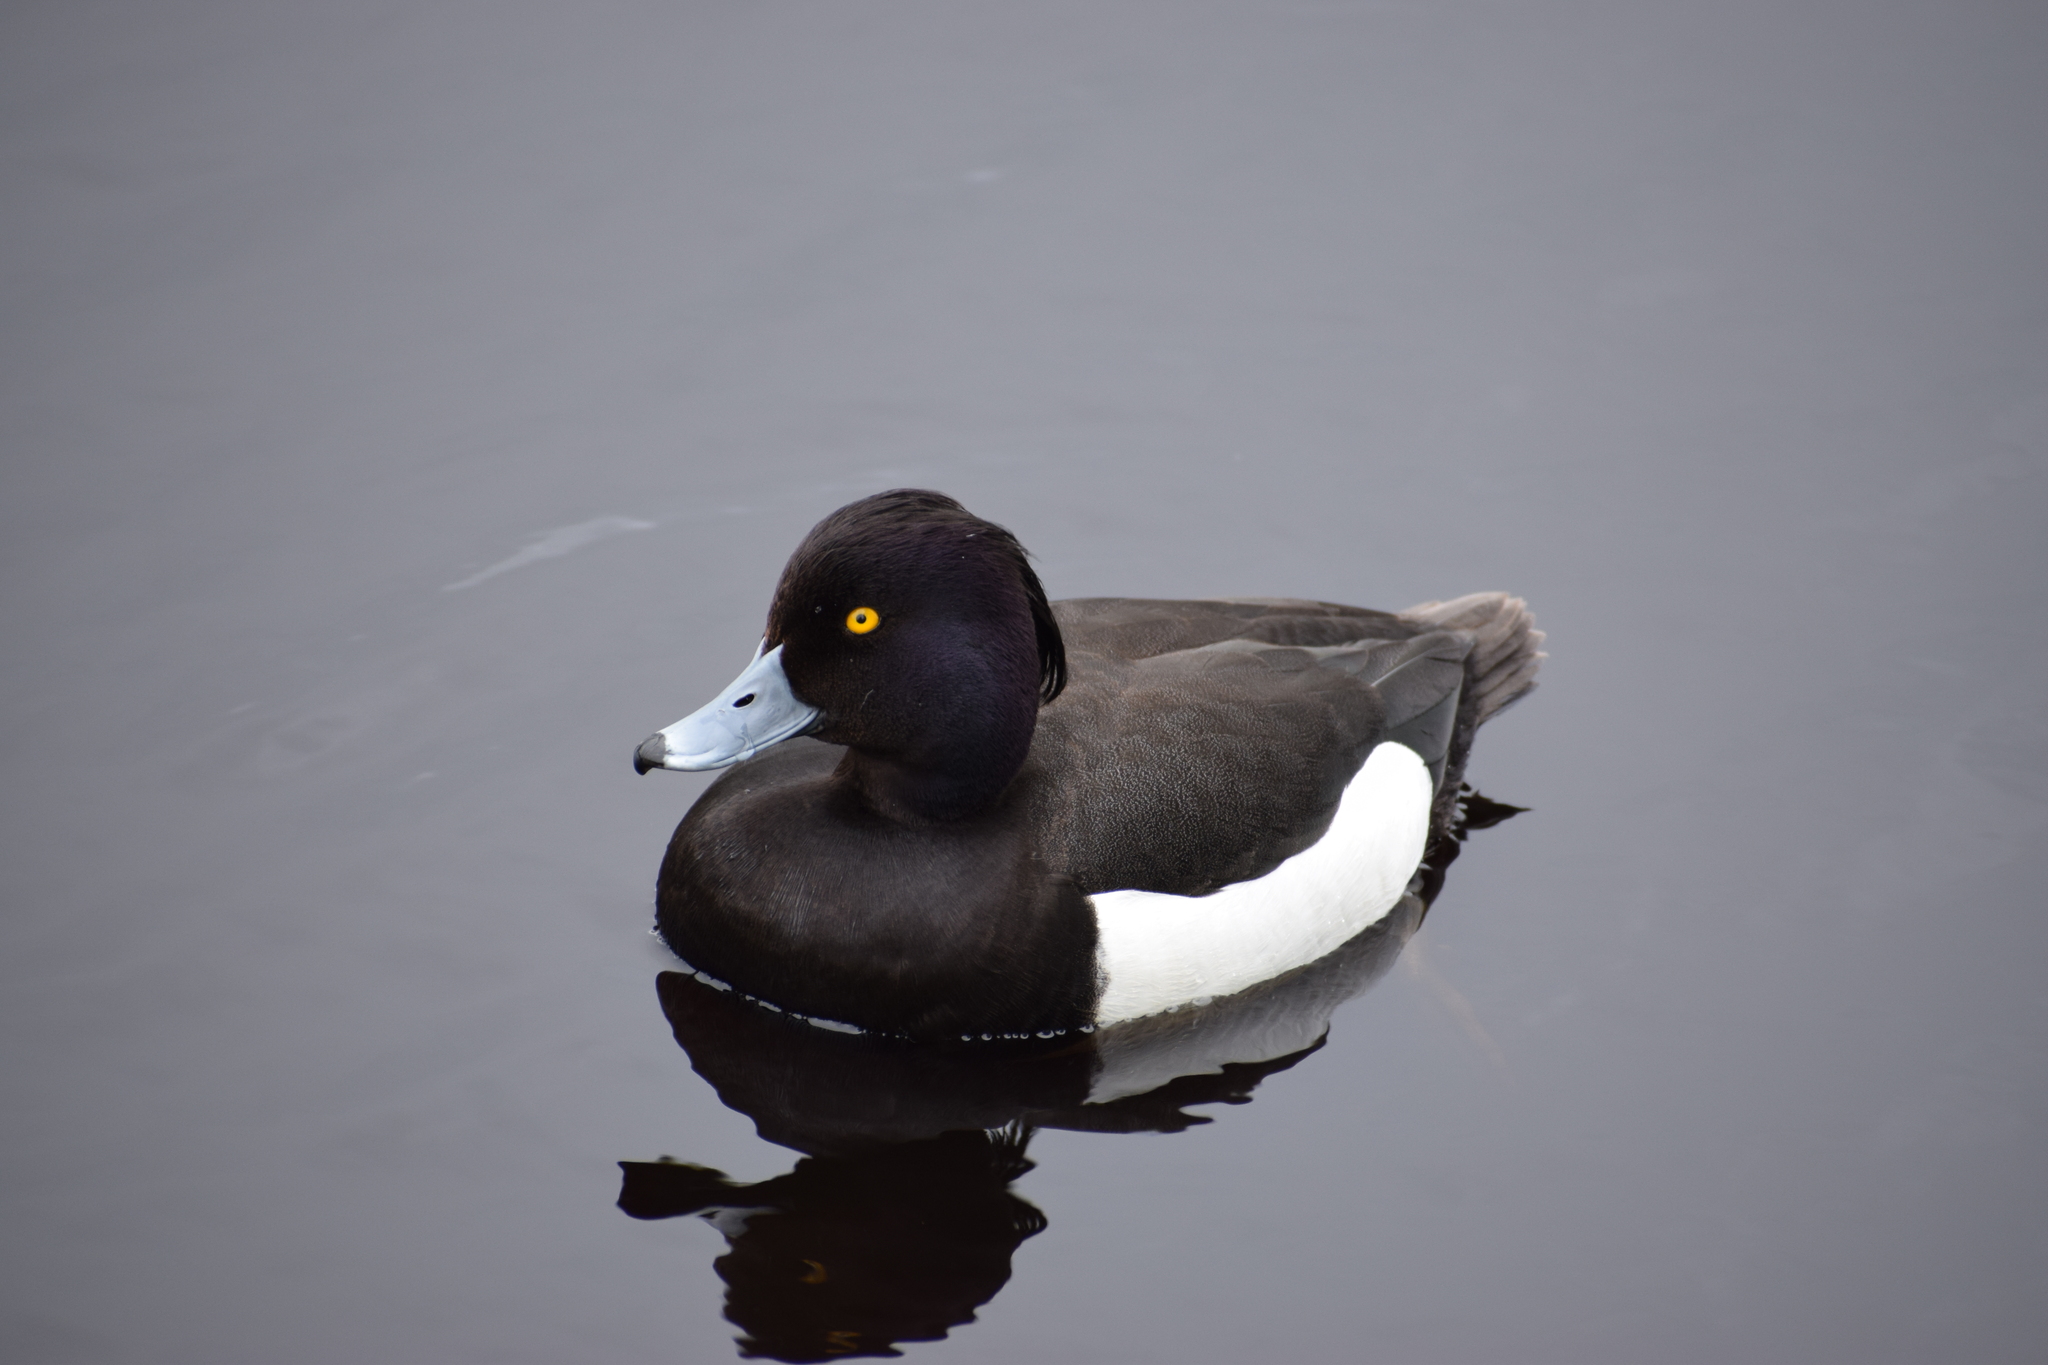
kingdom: Animalia
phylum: Chordata
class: Aves
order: Anseriformes
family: Anatidae
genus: Aythya
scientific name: Aythya fuligula
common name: Tufted duck
